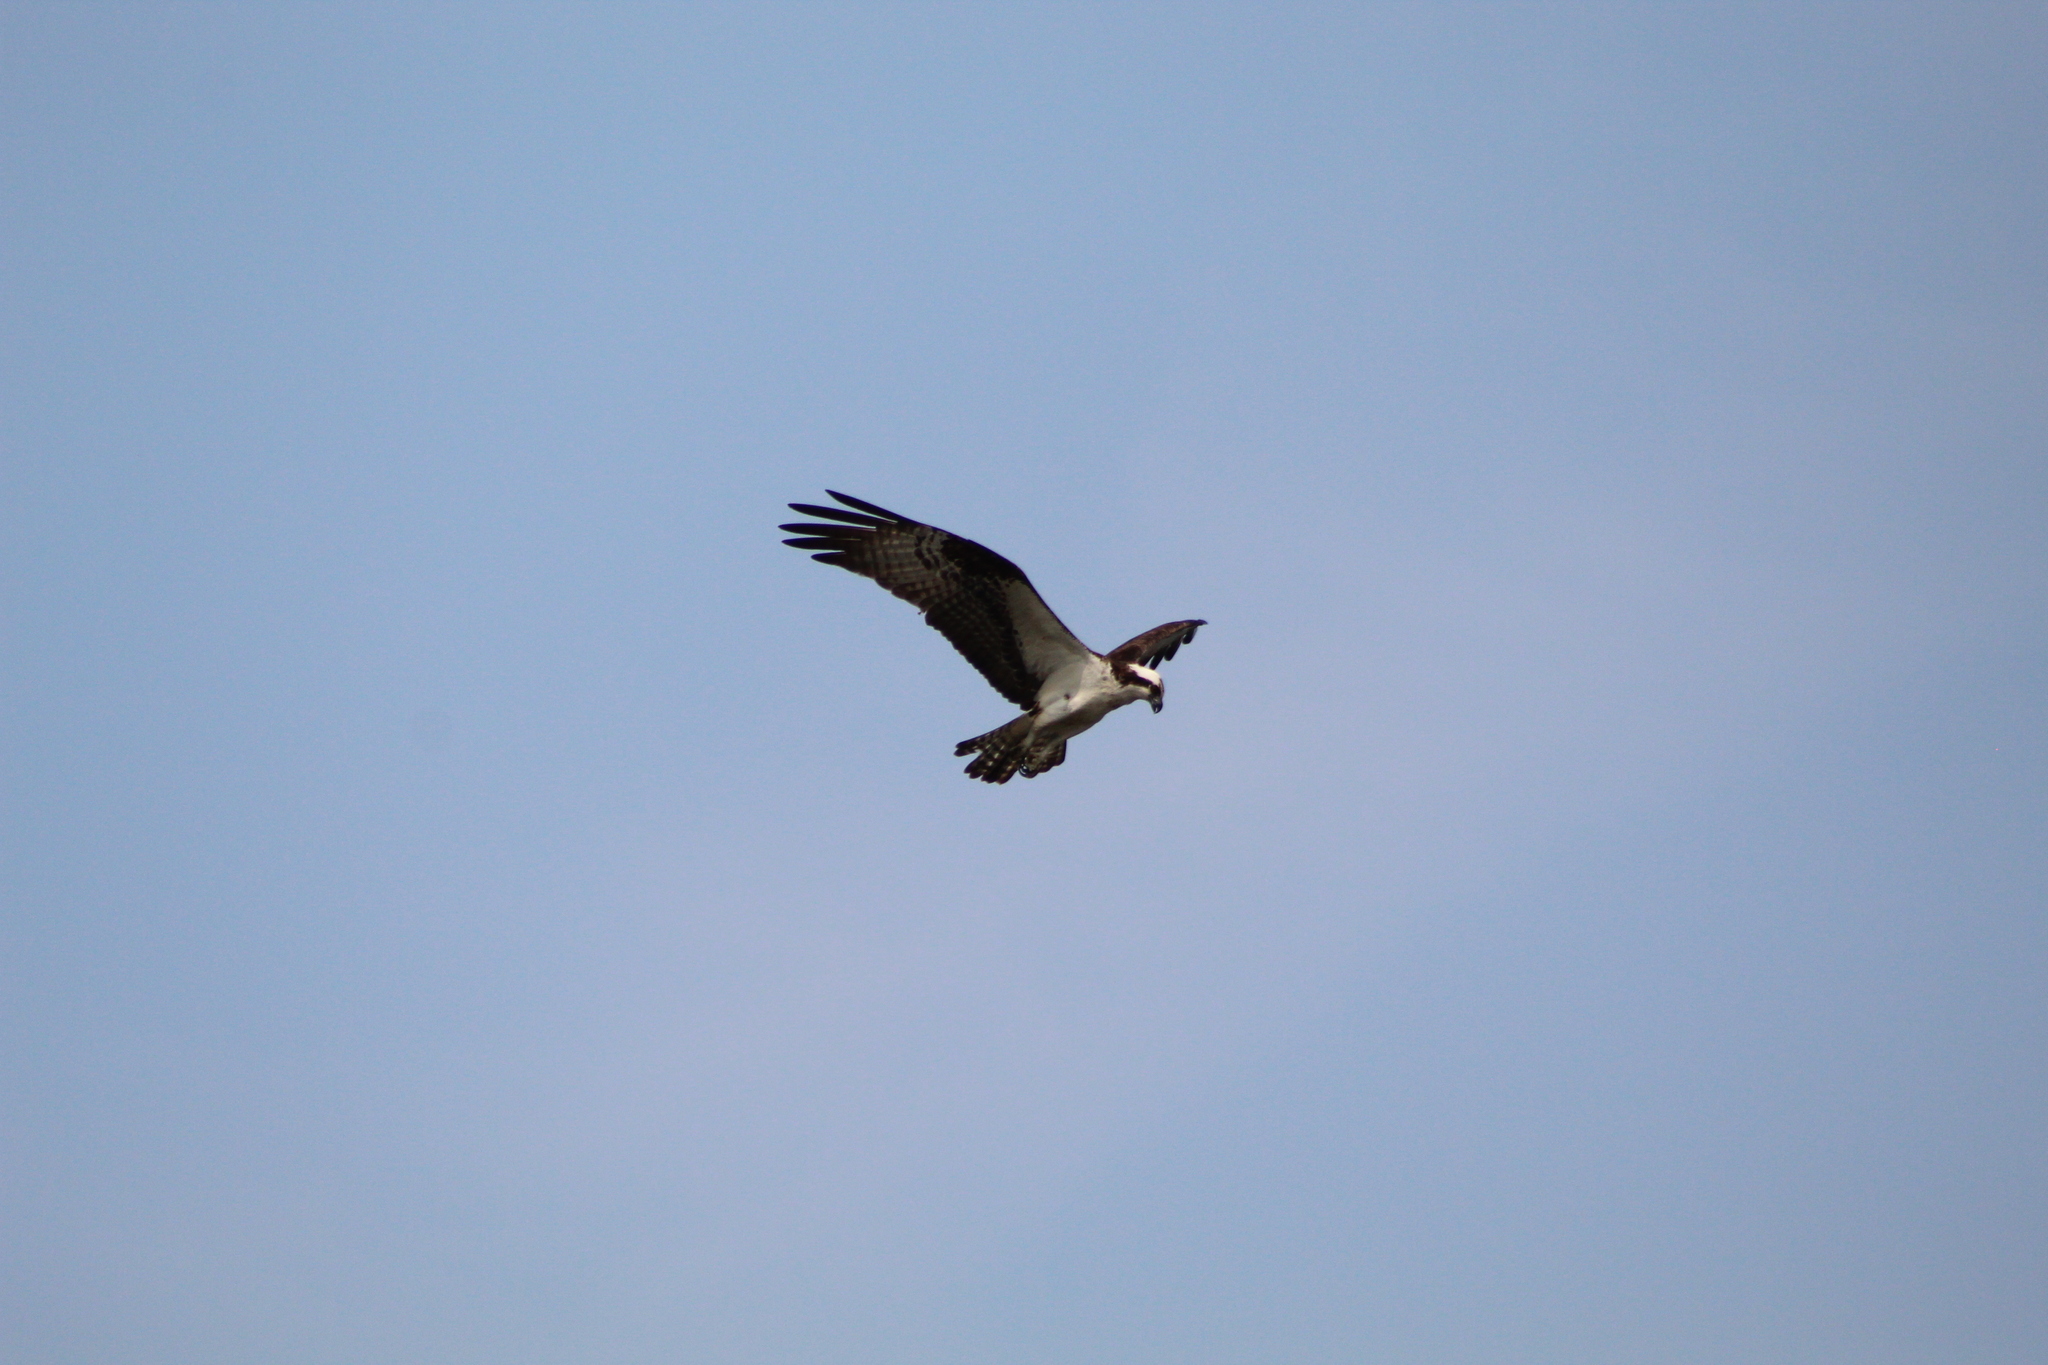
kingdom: Animalia
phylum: Chordata
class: Aves
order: Accipitriformes
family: Pandionidae
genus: Pandion
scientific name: Pandion haliaetus
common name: Osprey
